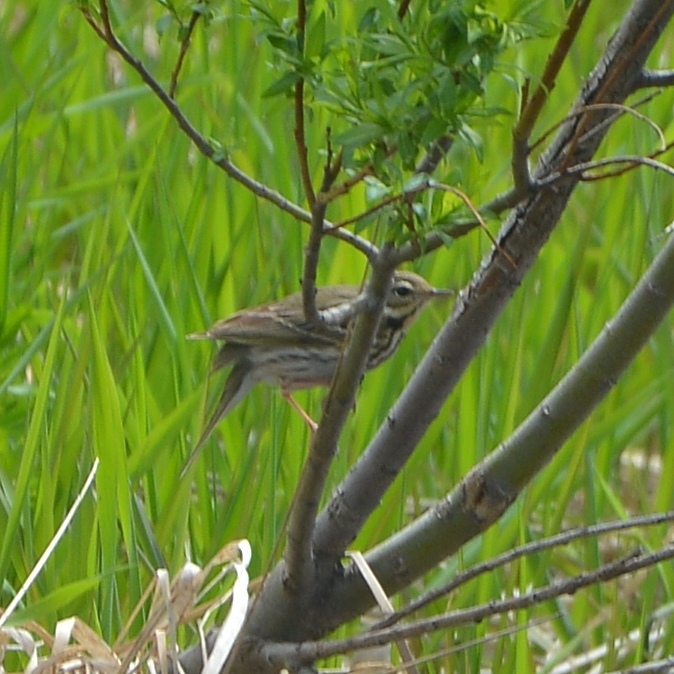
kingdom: Animalia
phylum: Chordata
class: Aves
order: Passeriformes
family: Motacillidae
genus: Anthus
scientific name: Anthus hodgsoni
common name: Olive-backed pipit
